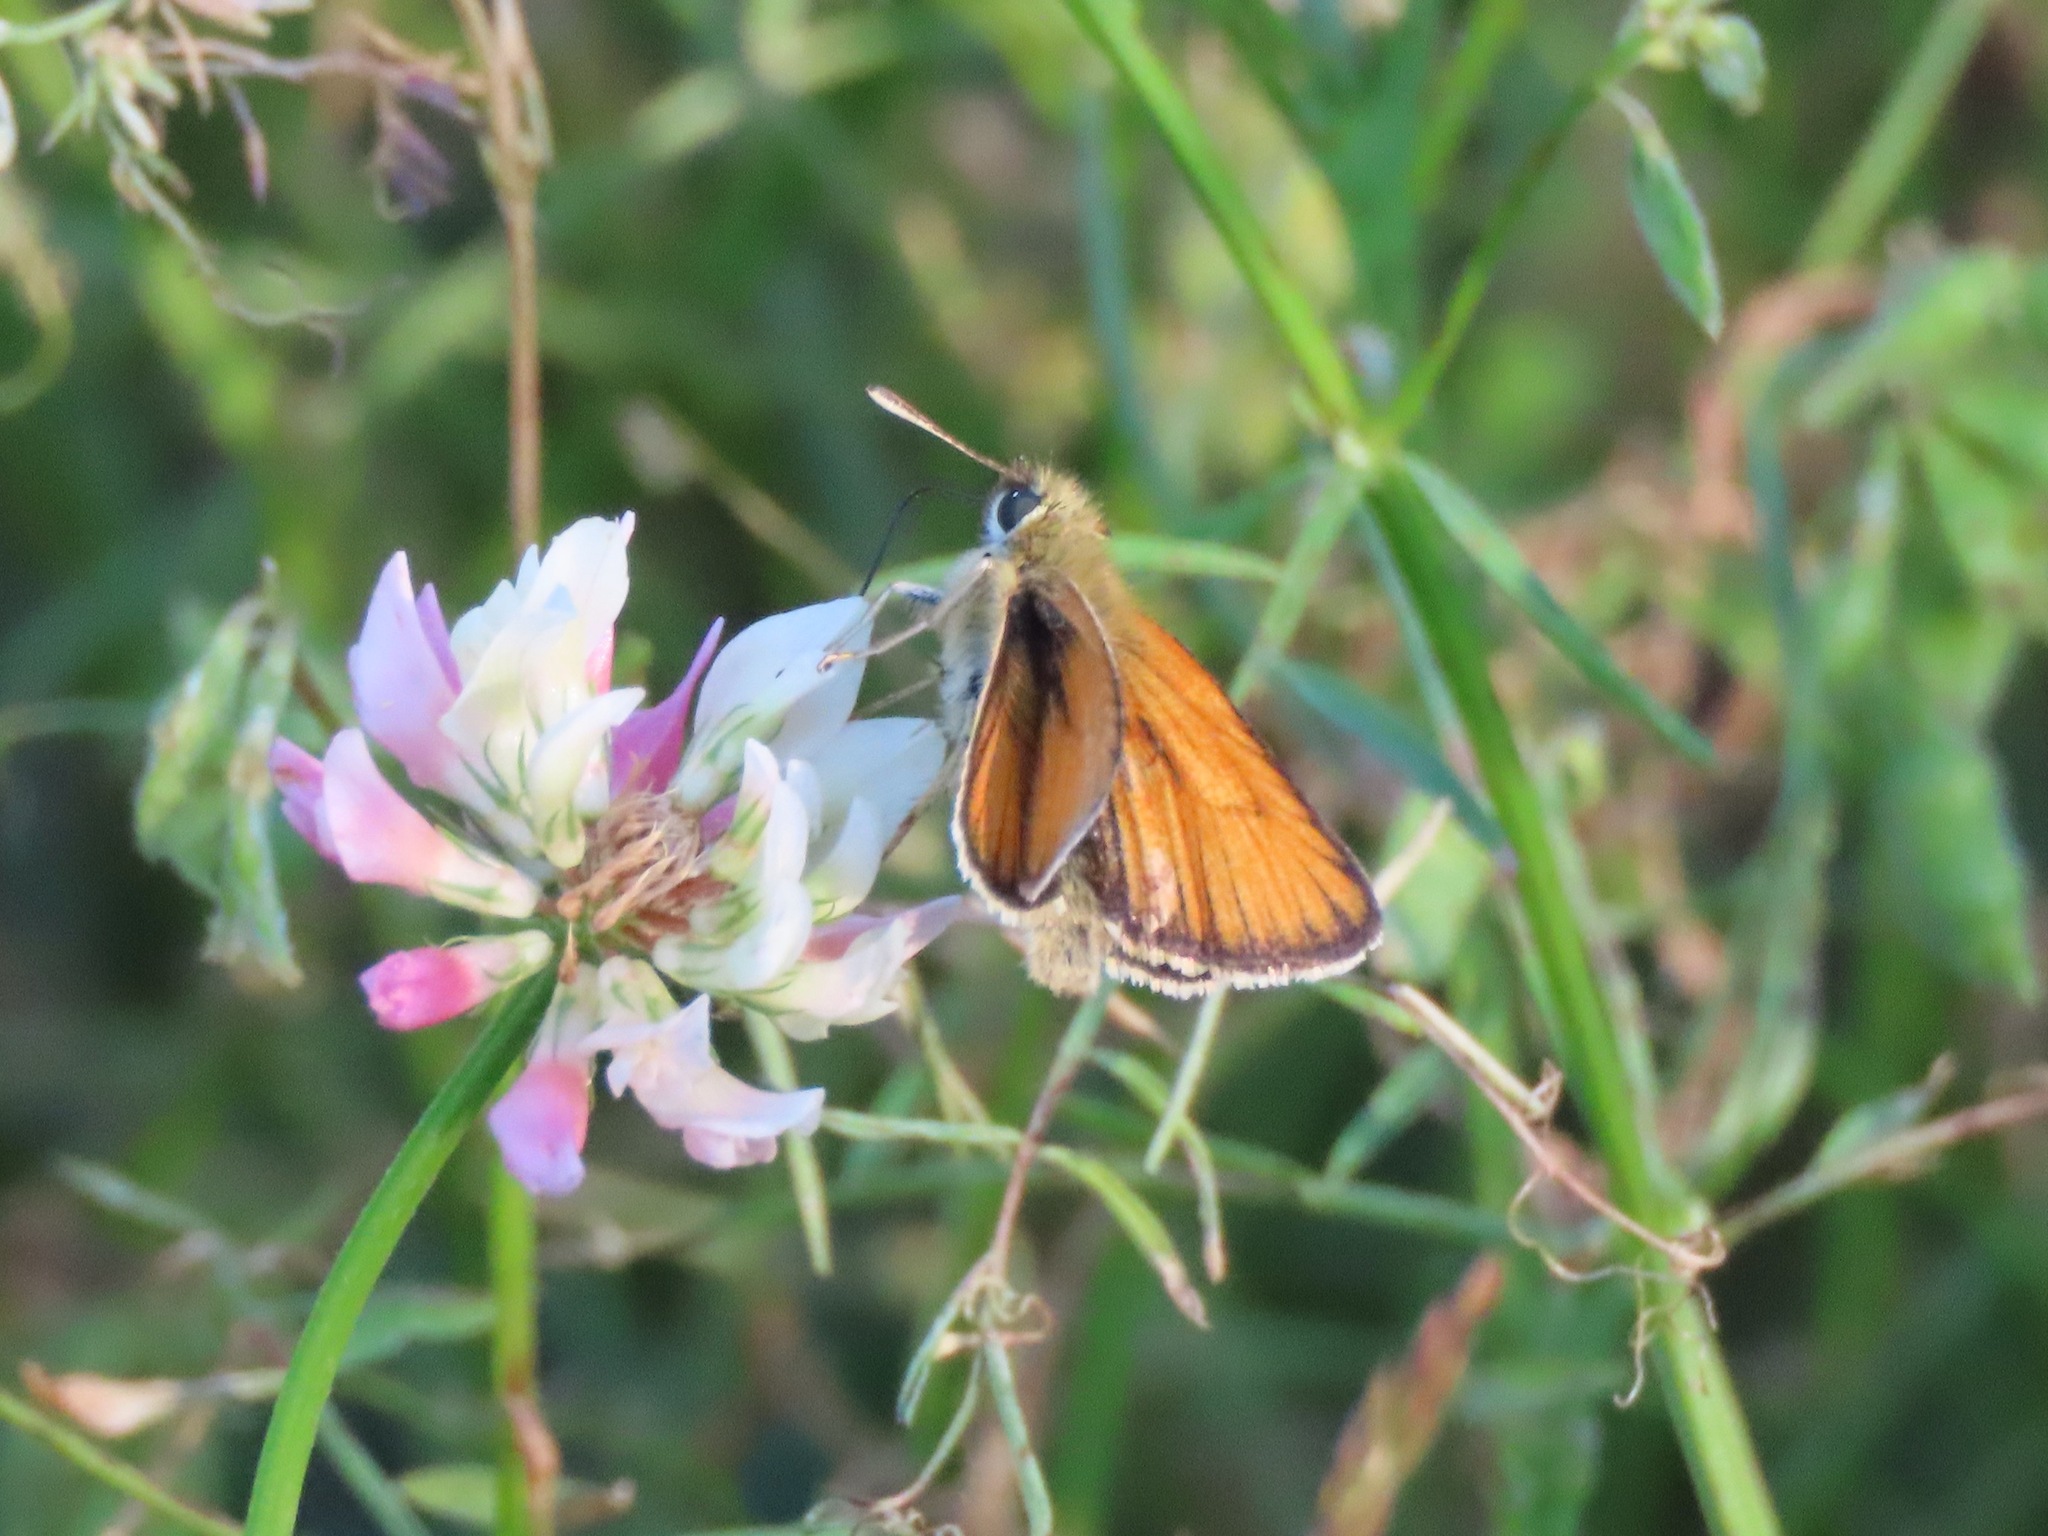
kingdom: Animalia
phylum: Arthropoda
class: Insecta
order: Lepidoptera
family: Hesperiidae
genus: Thymelicus
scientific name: Thymelicus lineola
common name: Essex skipper
